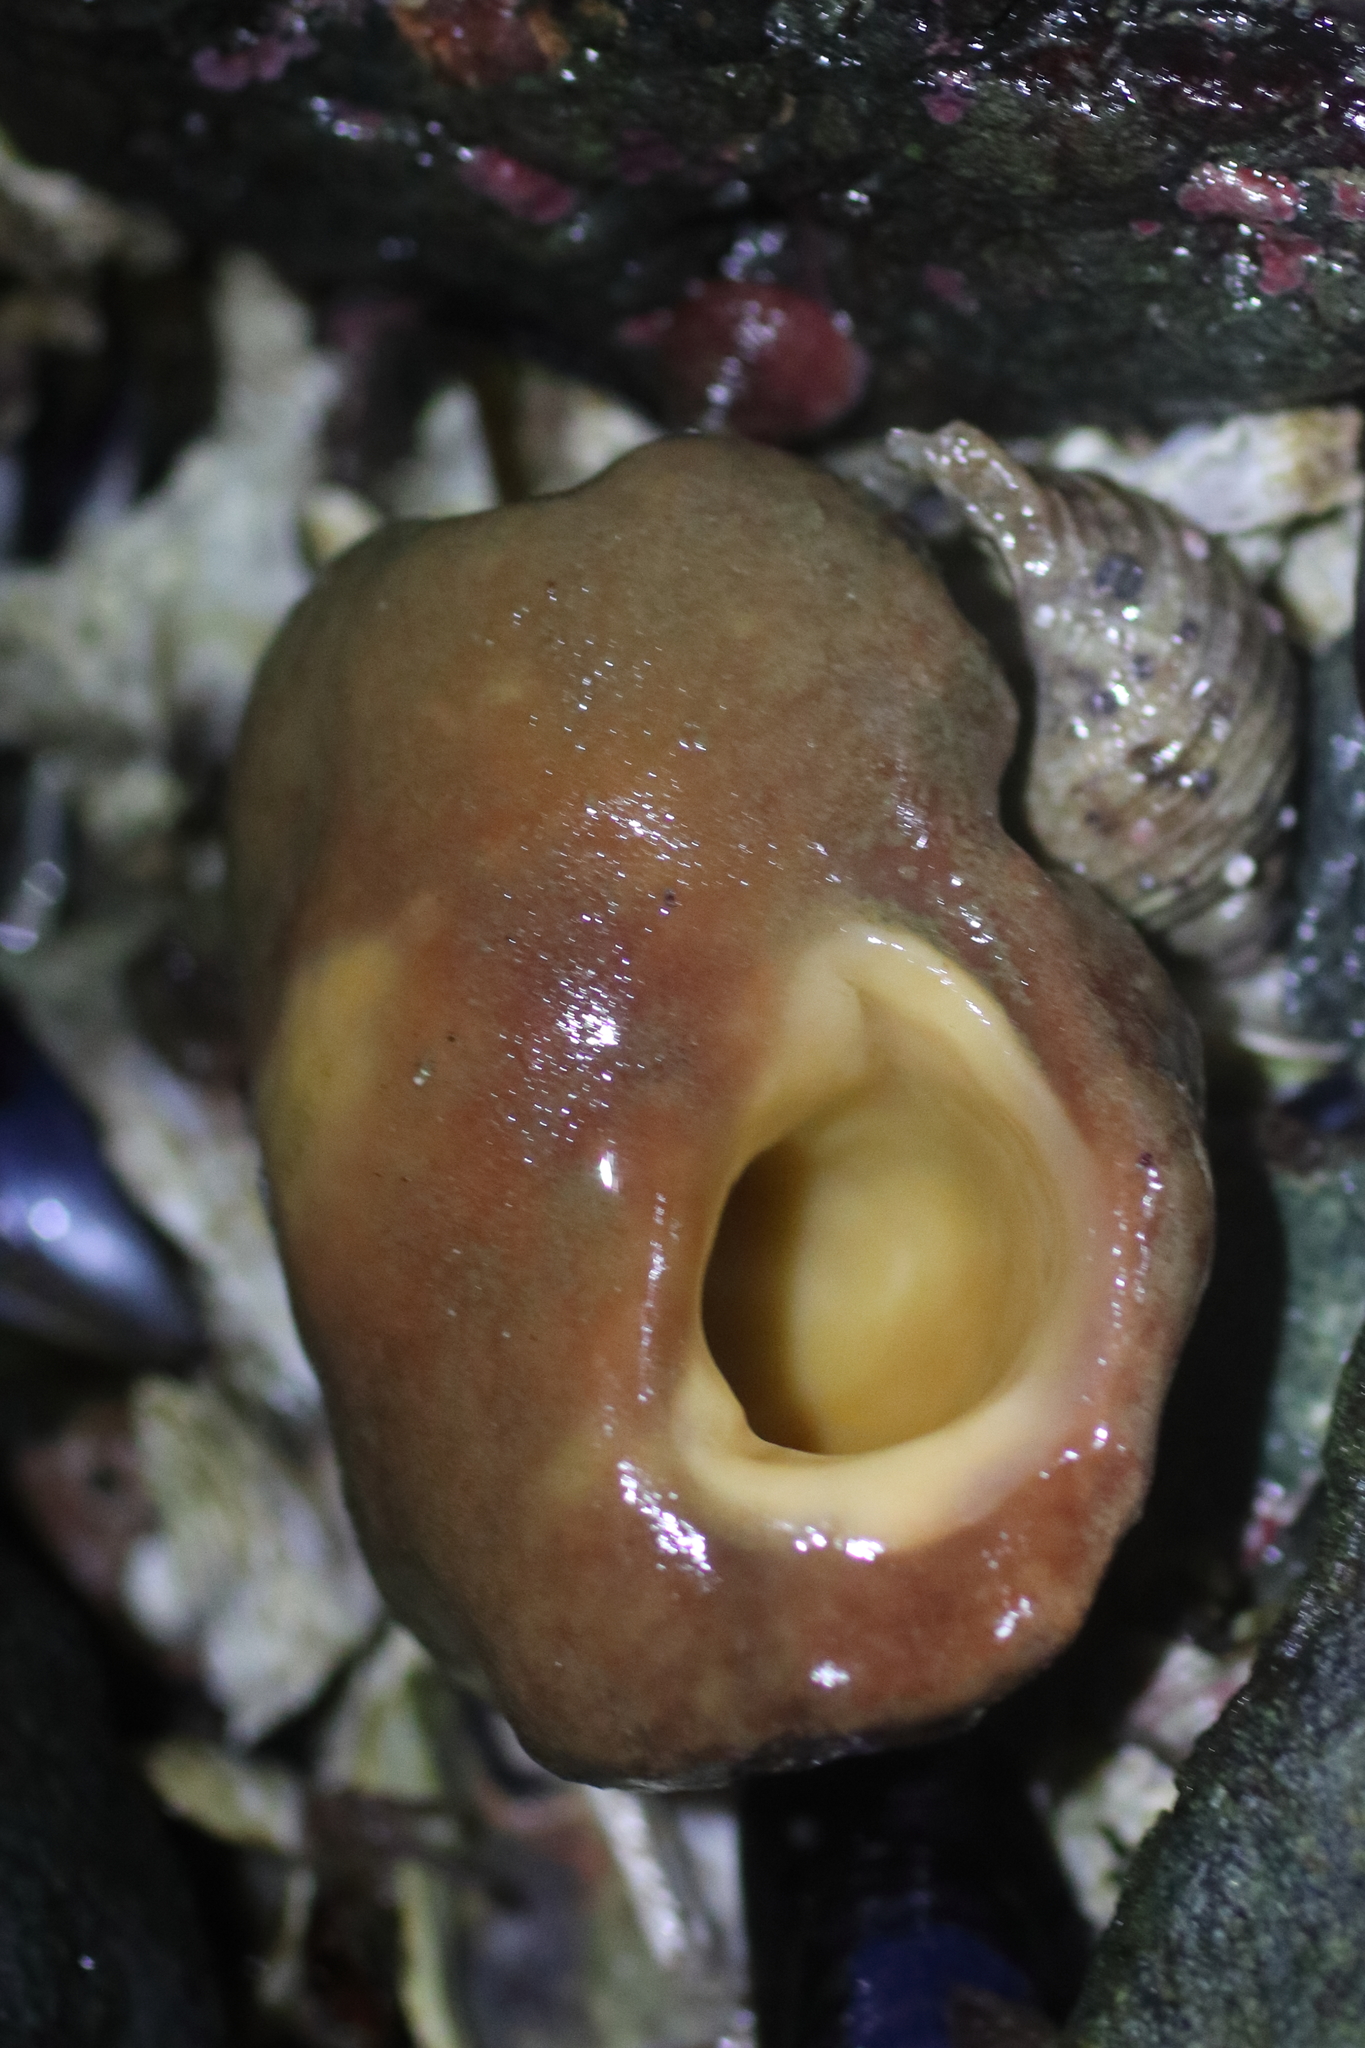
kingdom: Animalia
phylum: Porifera
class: Demospongiae
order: Suberitida
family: Suberitidae
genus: Suberites
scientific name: Suberites latus
